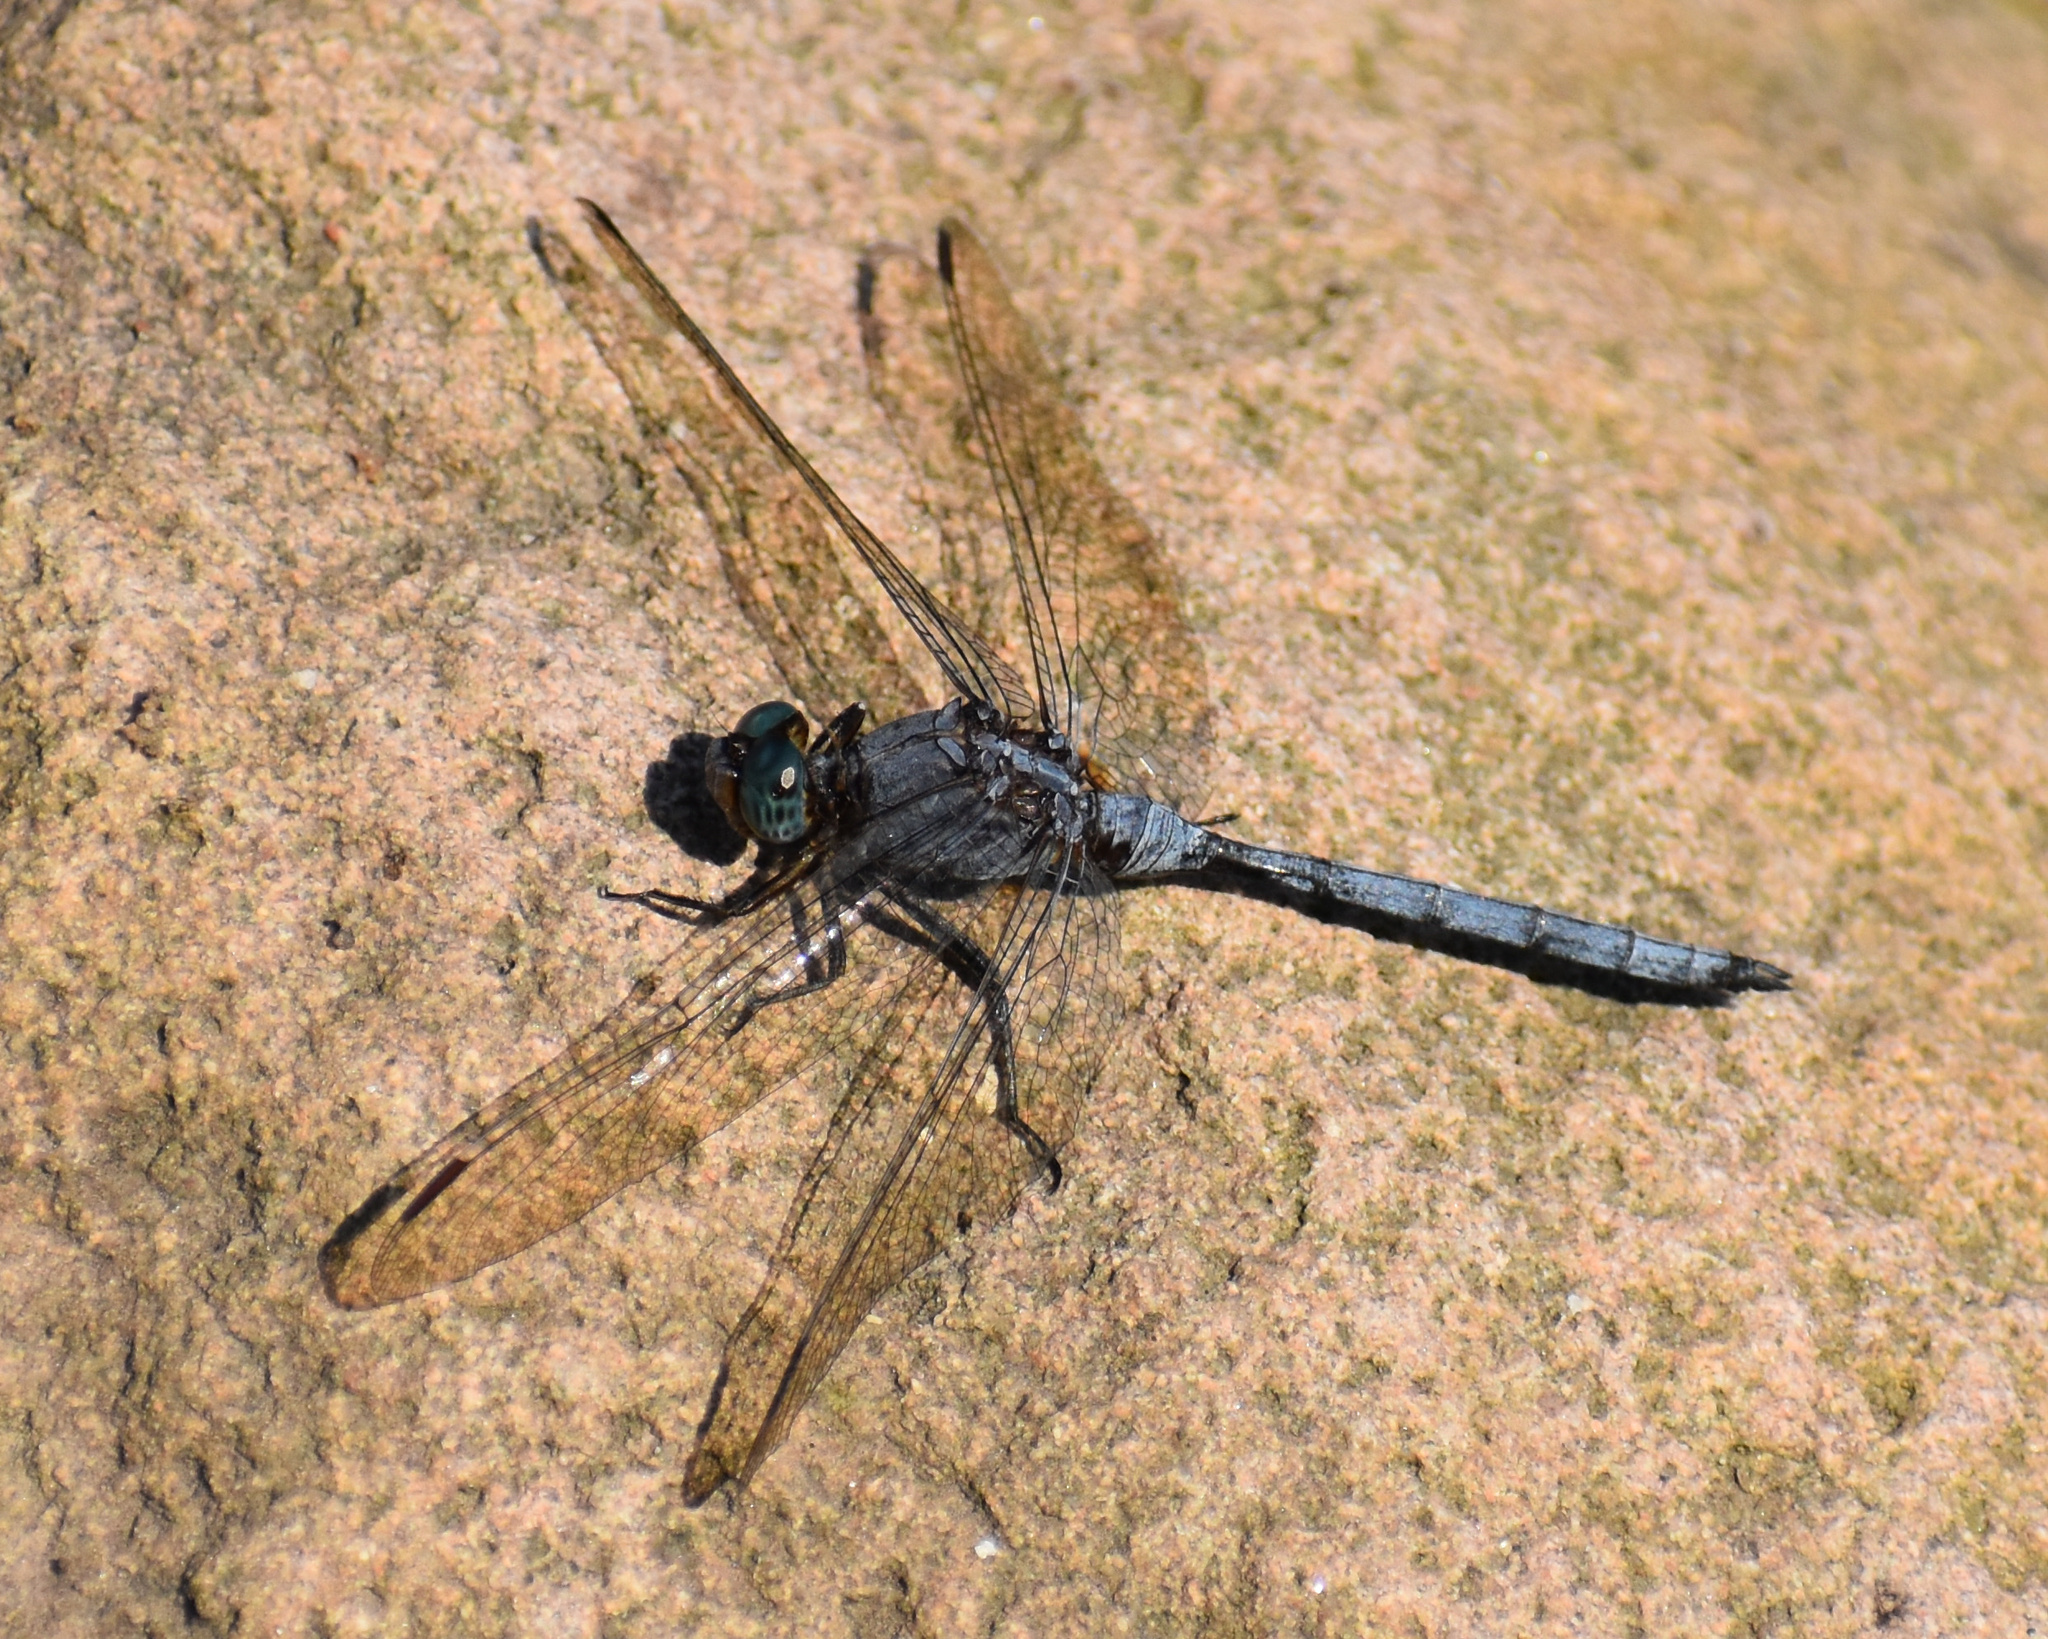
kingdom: Animalia
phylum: Arthropoda
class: Insecta
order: Odonata
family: Libellulidae
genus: Orthetrum
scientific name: Orthetrum julia
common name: Julia skimmer
